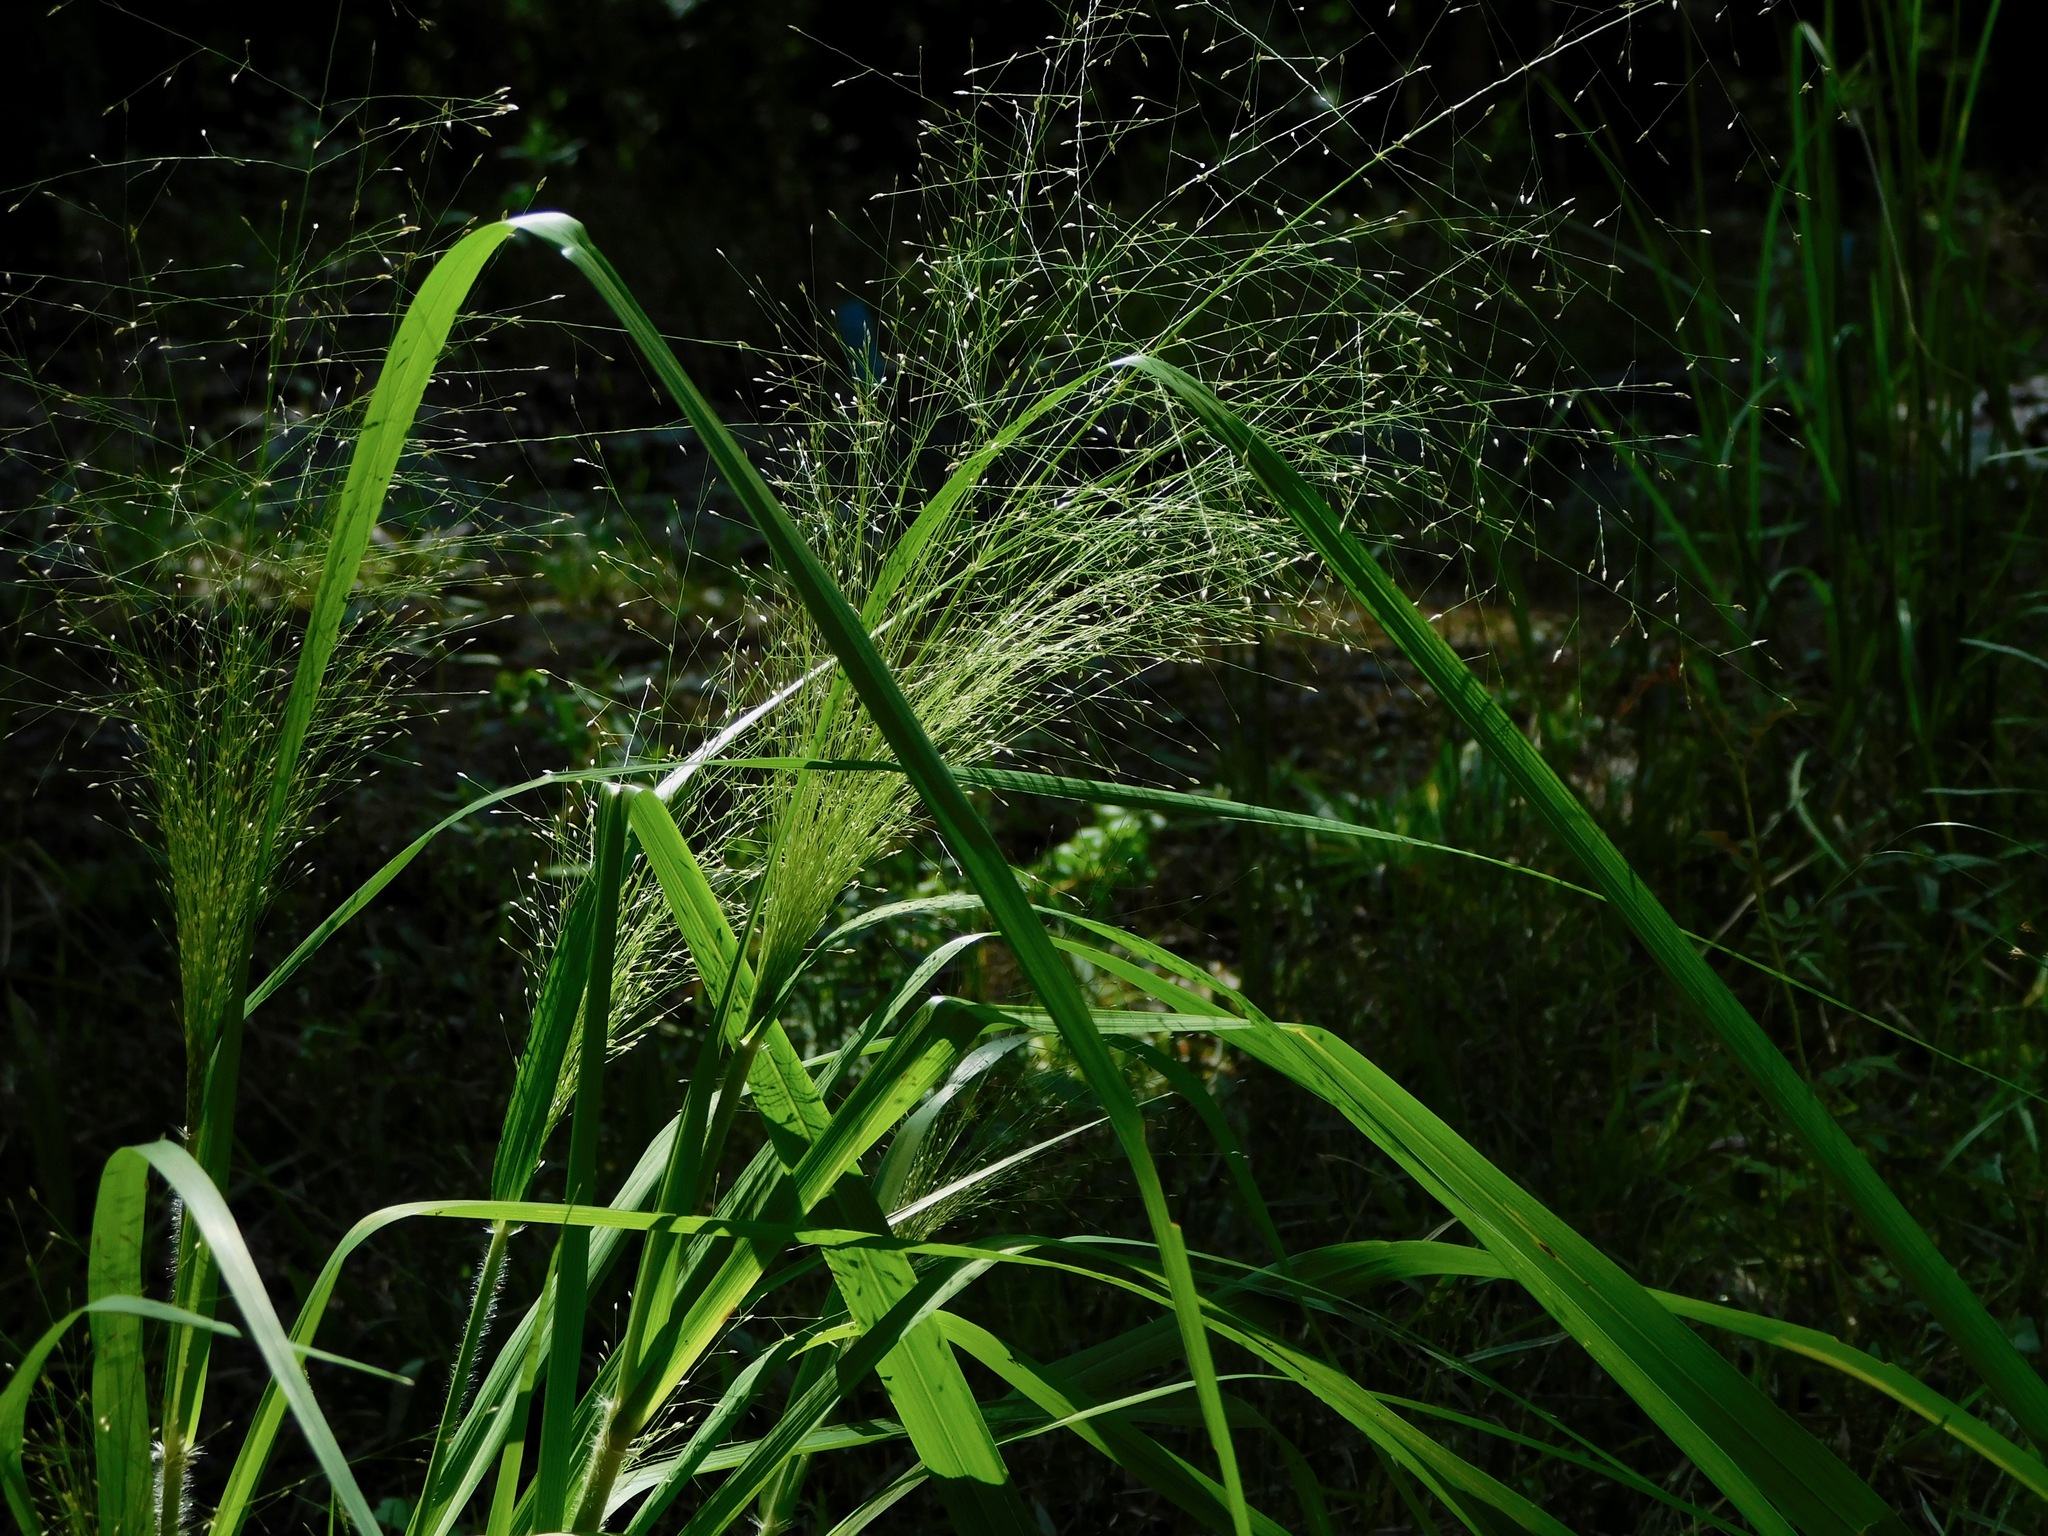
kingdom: Plantae
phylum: Tracheophyta
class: Liliopsida
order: Poales
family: Poaceae
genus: Eragrostis
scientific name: Eragrostis hirsuta
